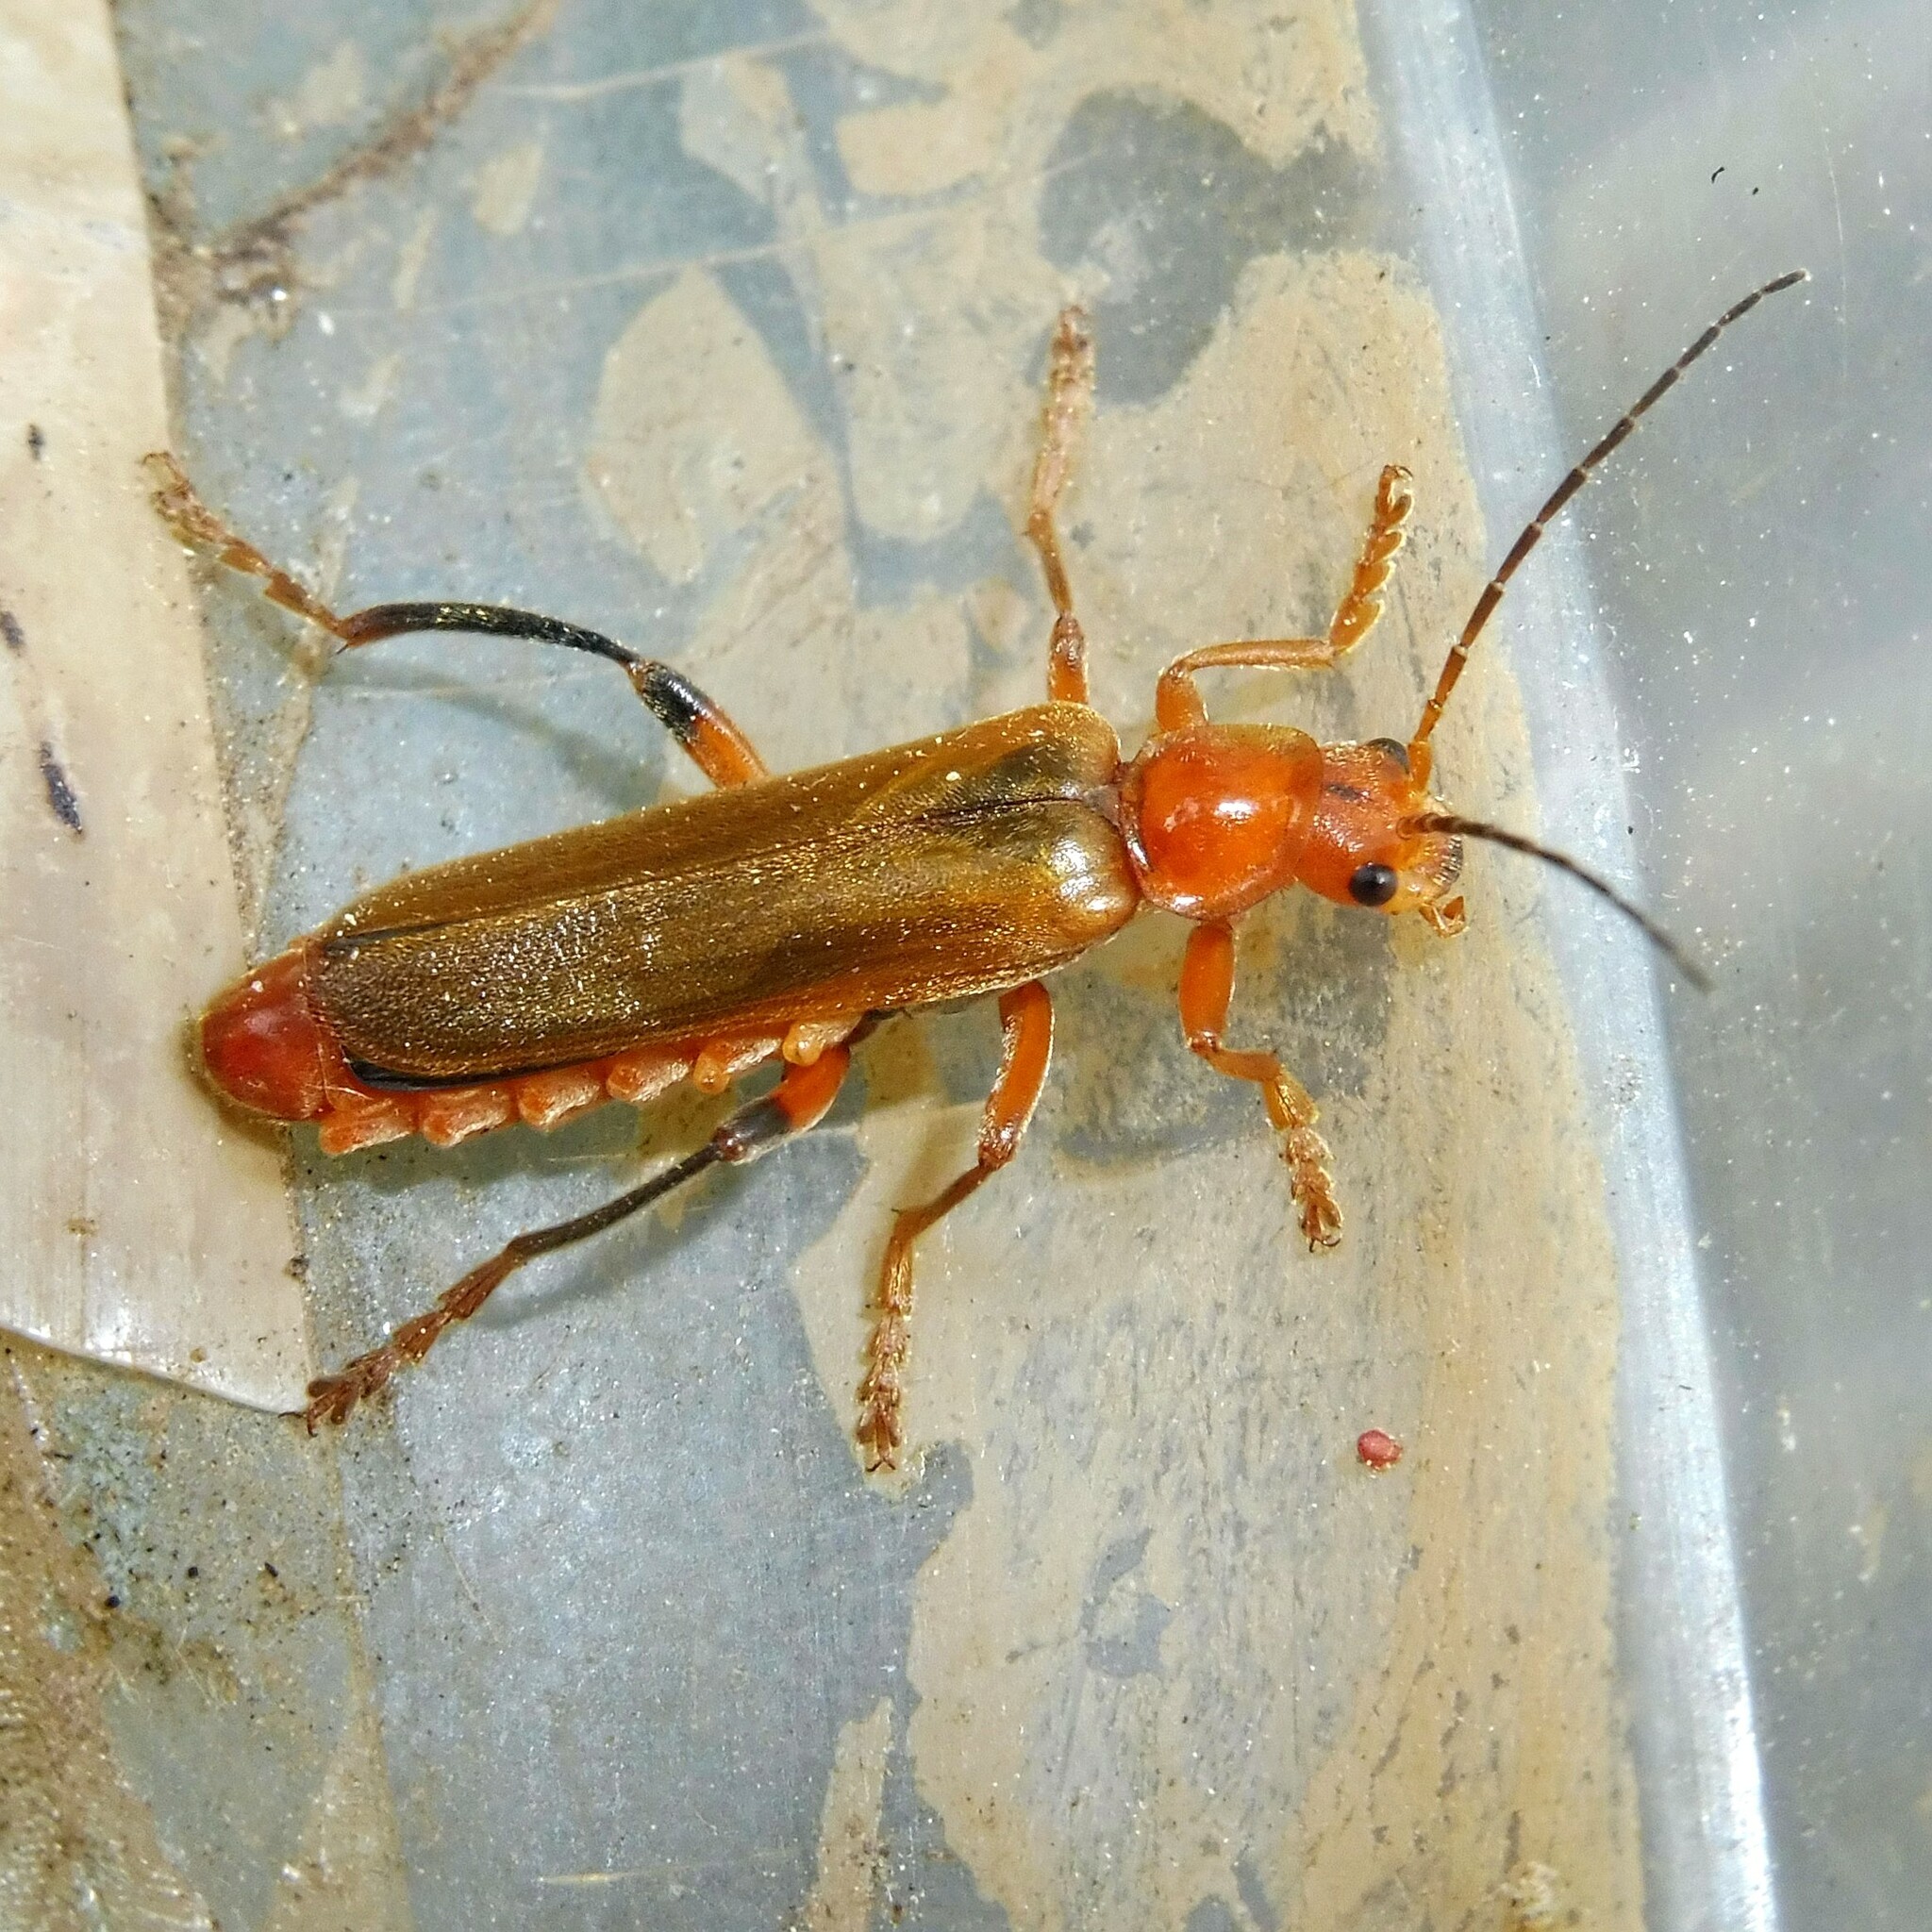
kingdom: Animalia
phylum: Arthropoda
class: Insecta
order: Coleoptera
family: Cantharidae
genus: Cantharis
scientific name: Cantharis livida
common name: Livid soldier beetle
